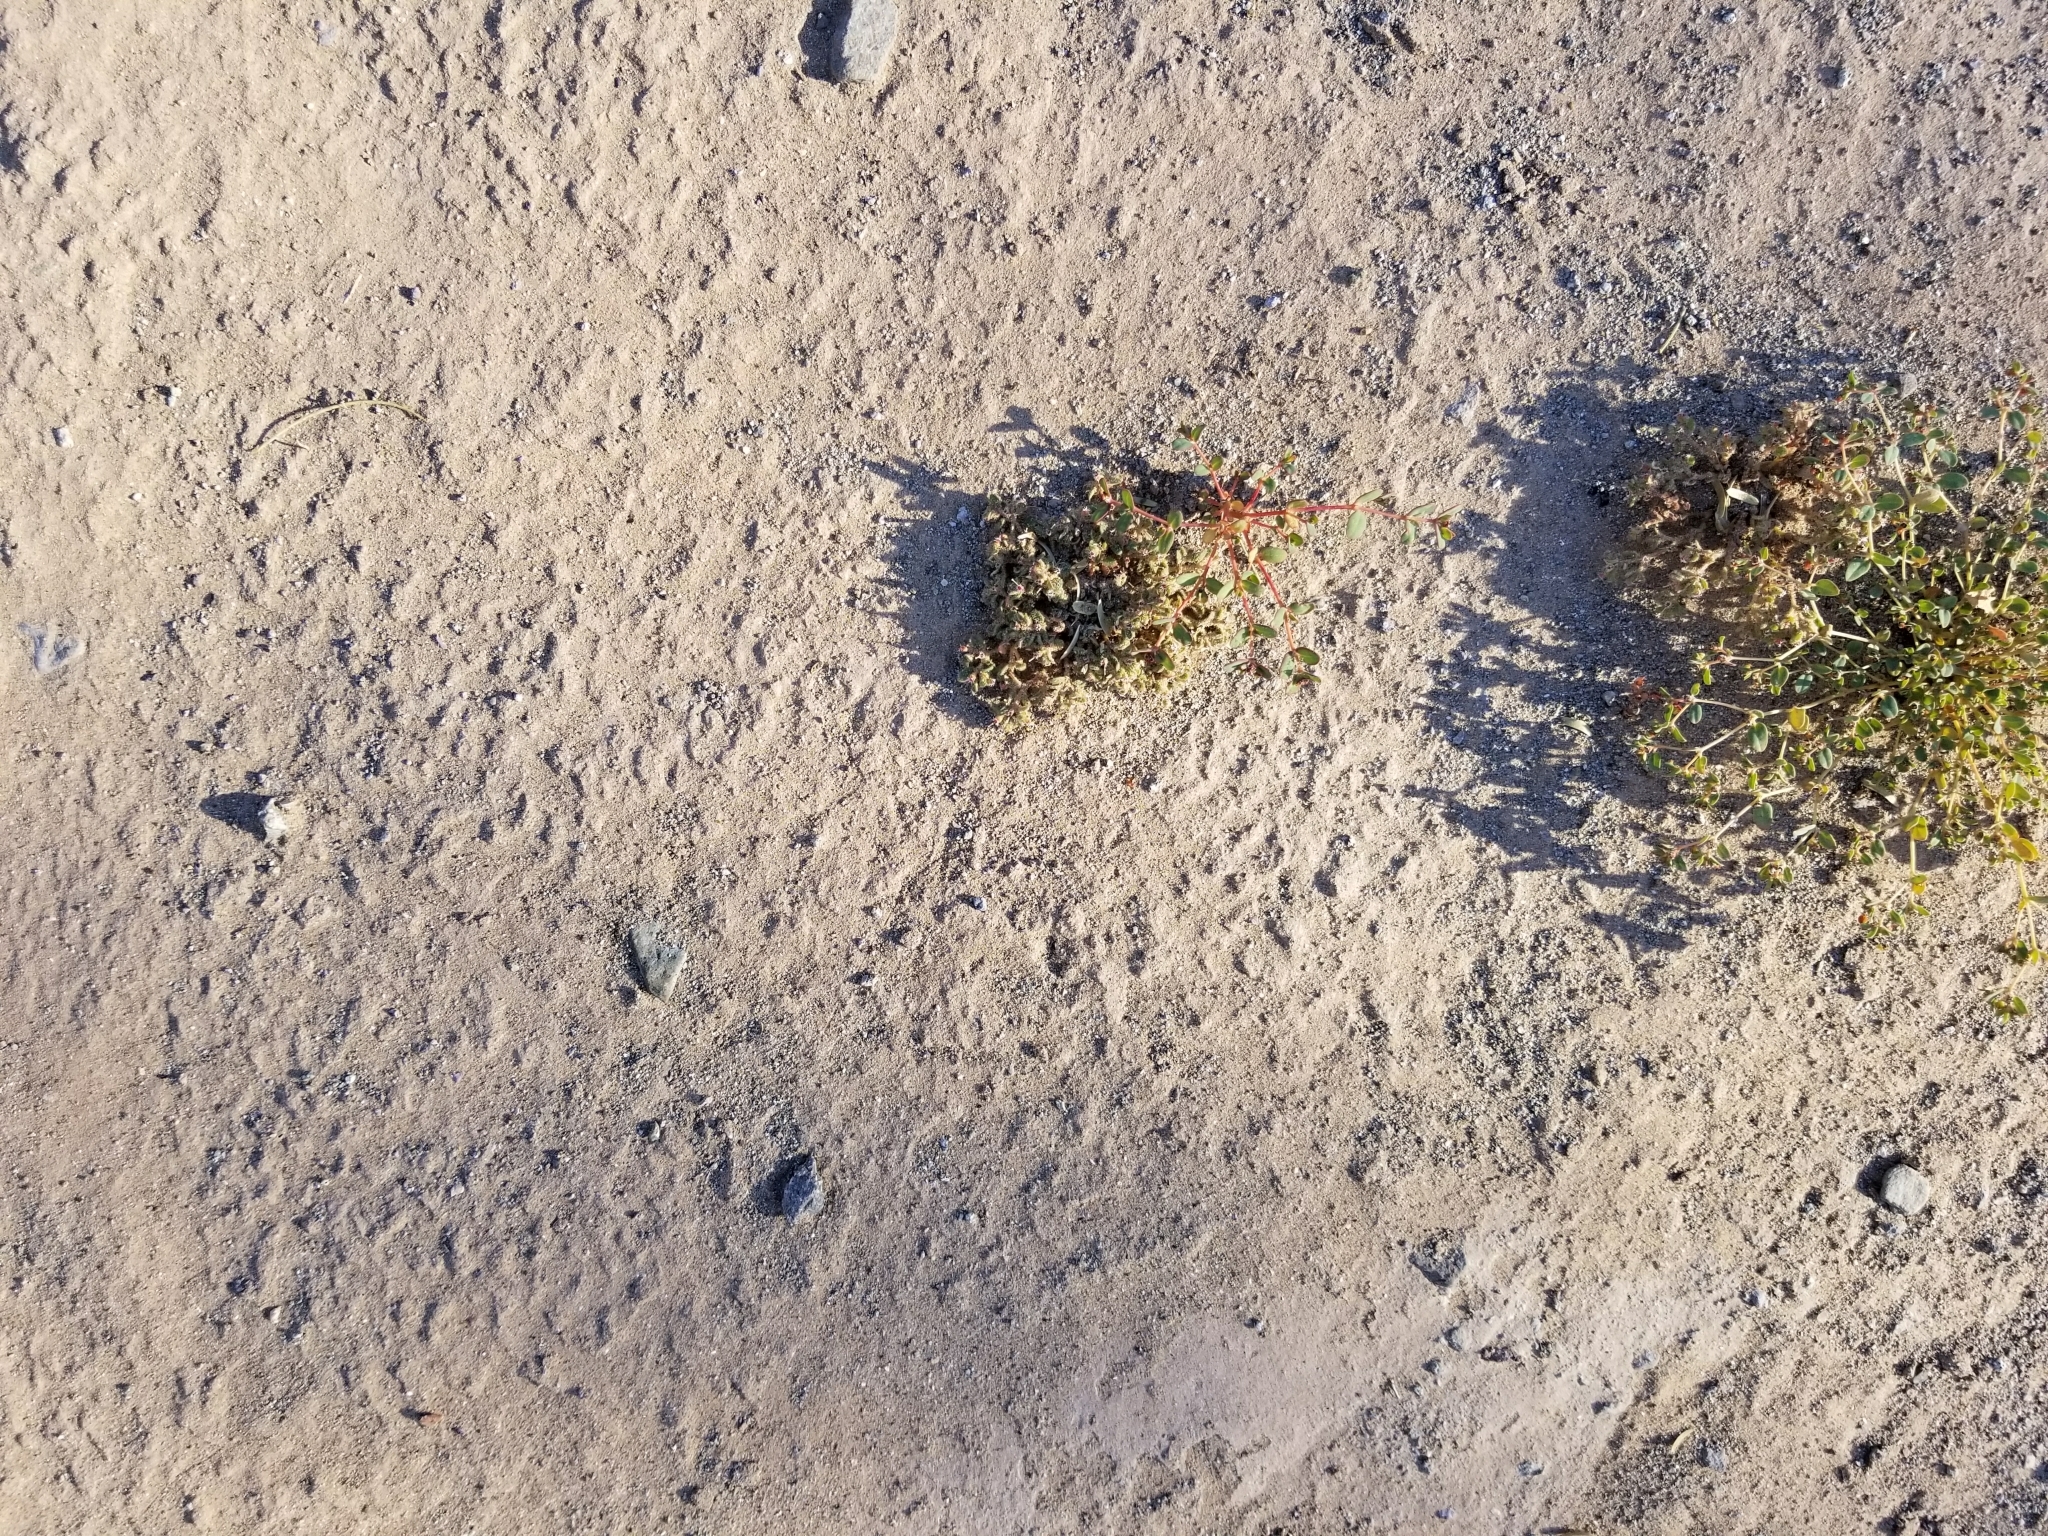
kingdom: Plantae
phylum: Tracheophyta
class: Magnoliopsida
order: Malpighiales
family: Euphorbiaceae
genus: Euphorbia
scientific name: Euphorbia polycarpa
